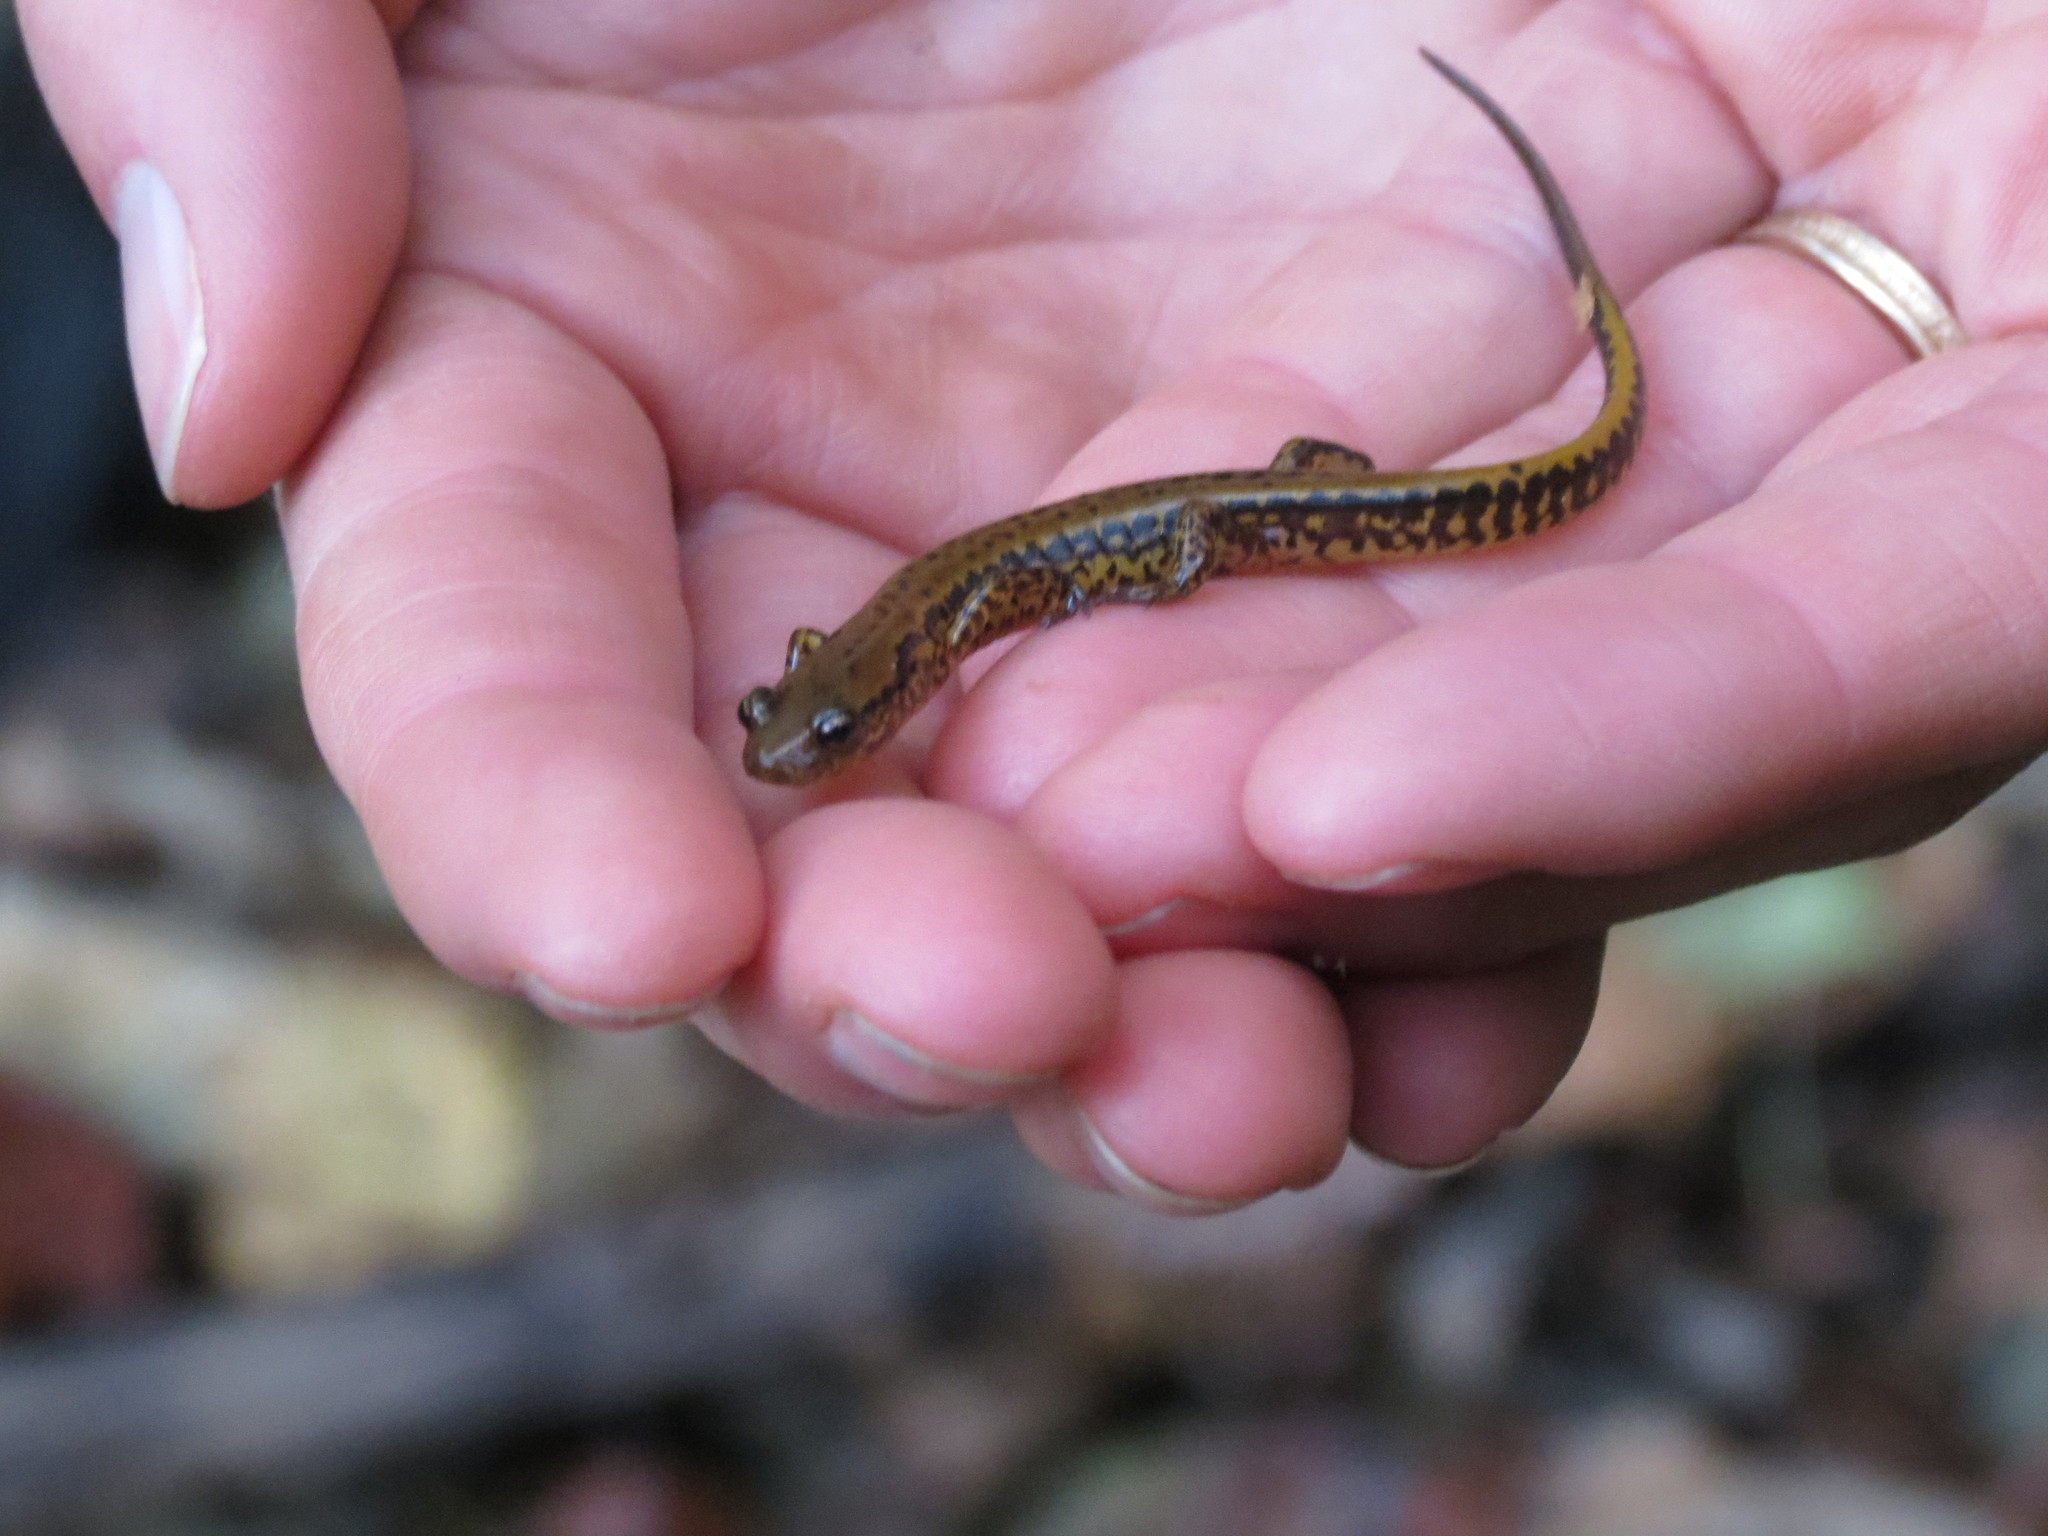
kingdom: Animalia
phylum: Chordata
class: Amphibia
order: Caudata
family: Plethodontidae
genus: Eurycea
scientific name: Eurycea longicauda
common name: Long-tailed salamander
